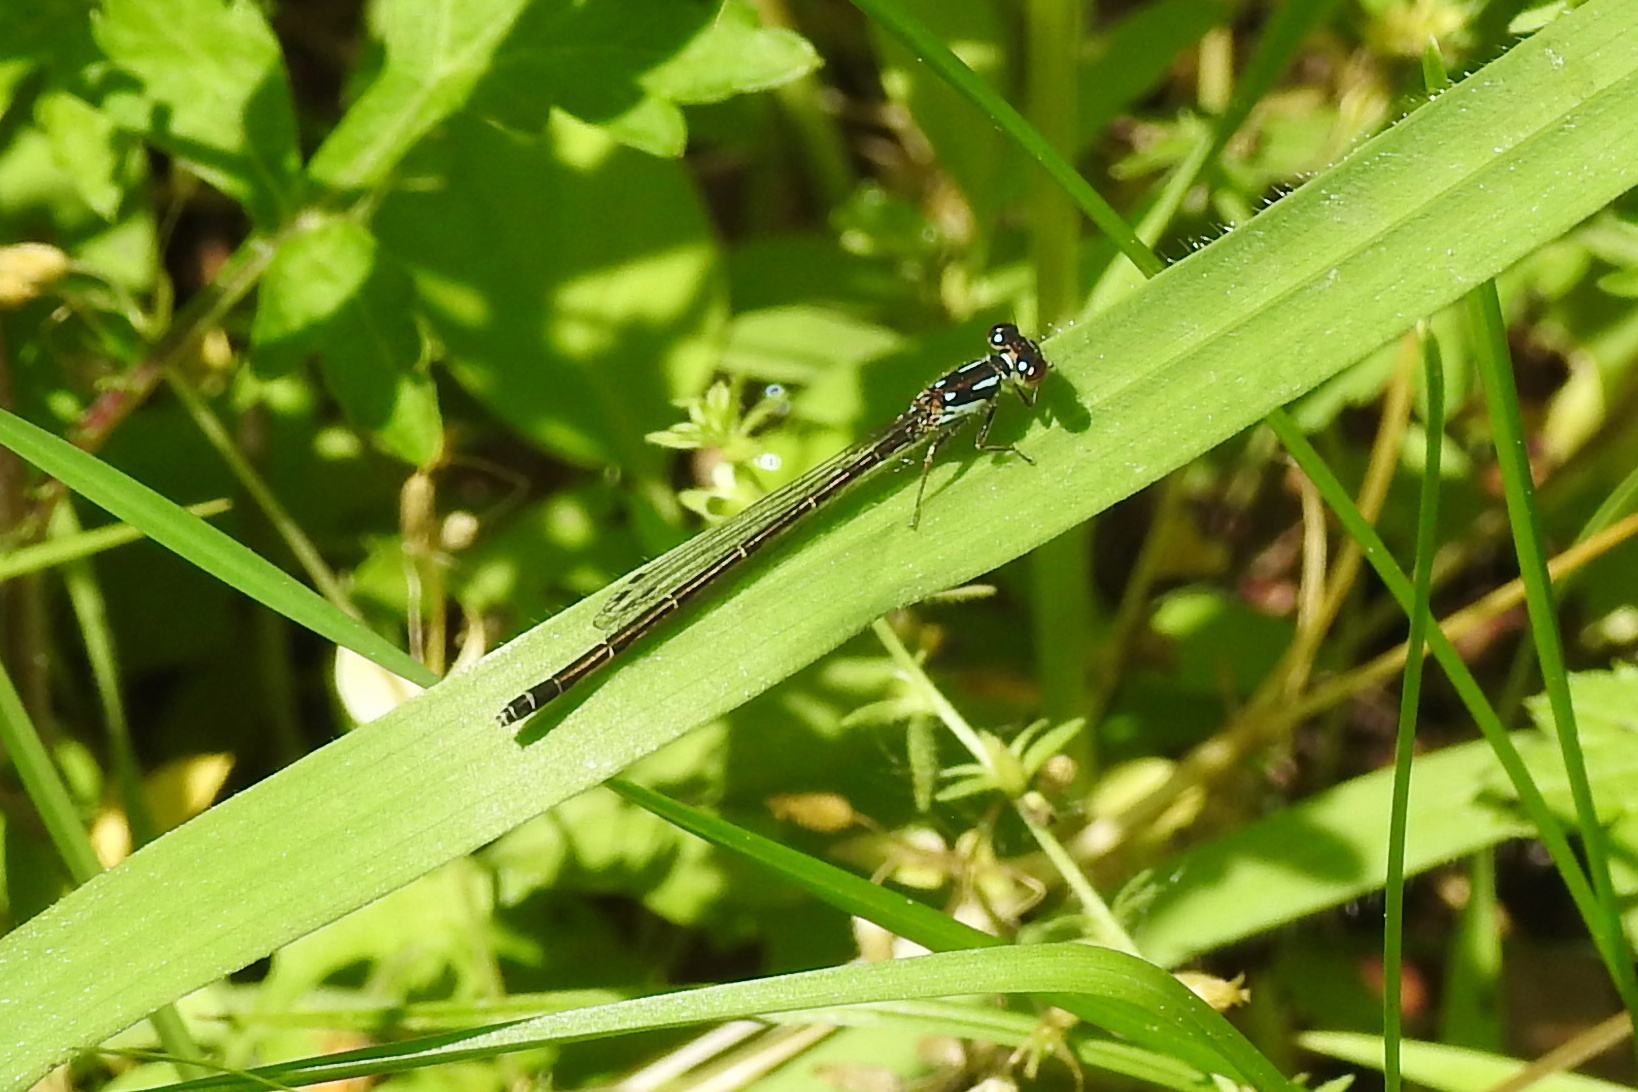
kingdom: Animalia
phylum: Arthropoda
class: Insecta
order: Odonata
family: Coenagrionidae
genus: Ischnura
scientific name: Ischnura posita
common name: Fragile forktail
